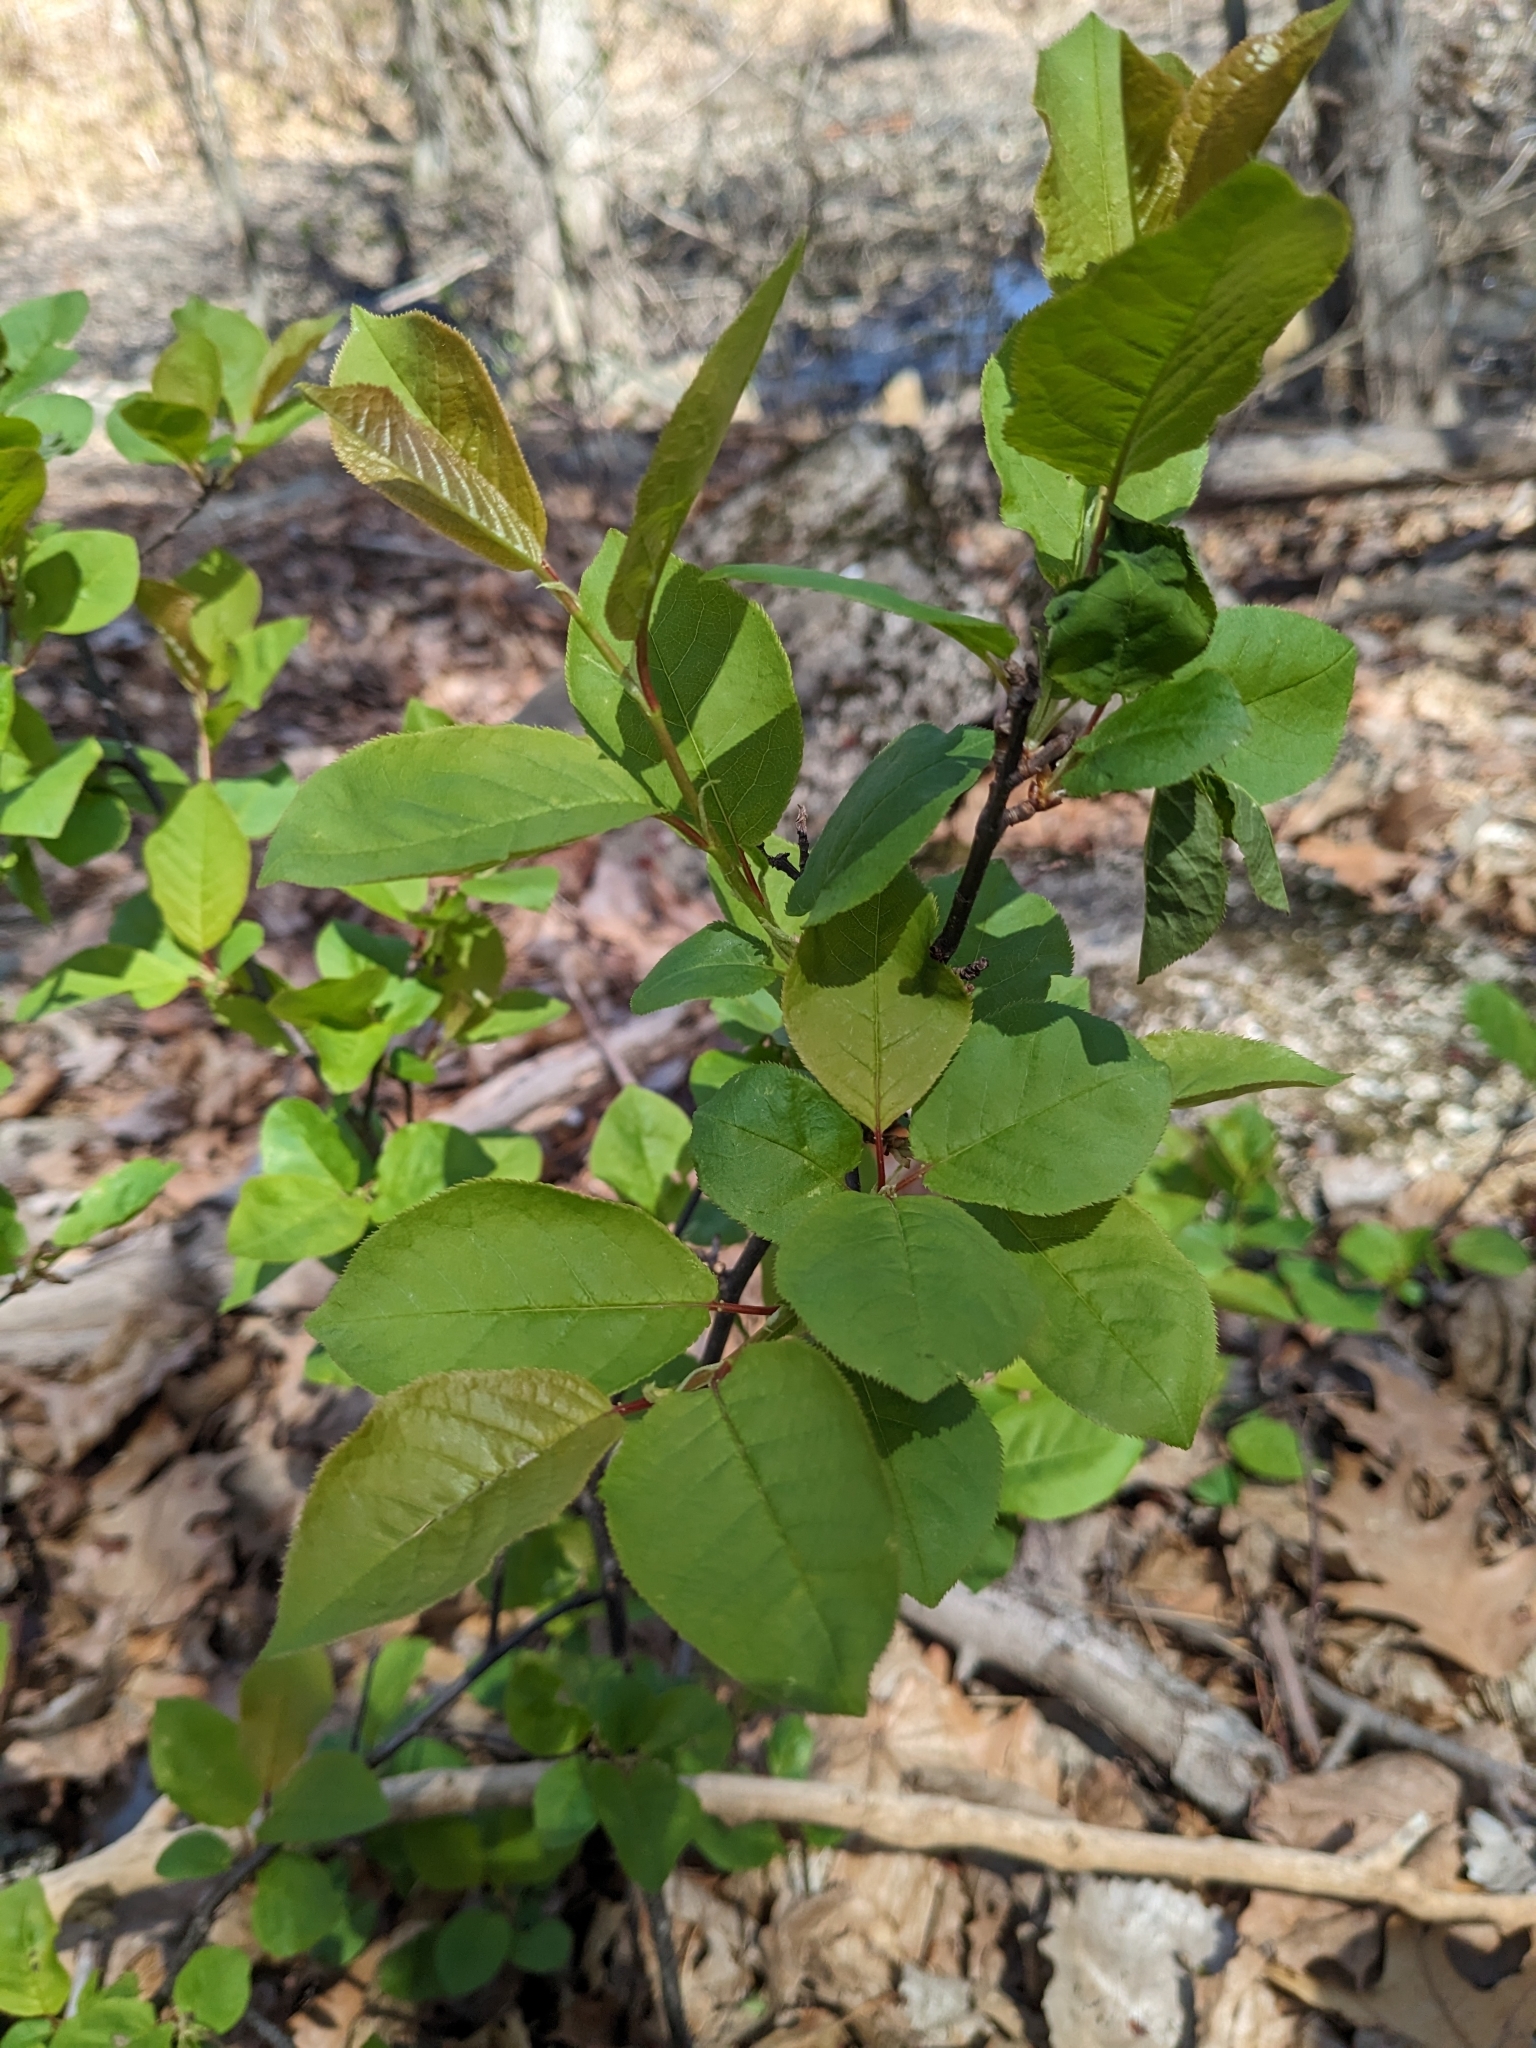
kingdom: Plantae
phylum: Tracheophyta
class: Magnoliopsida
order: Rosales
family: Rosaceae
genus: Prunus
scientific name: Prunus virginiana
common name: Chokecherry
